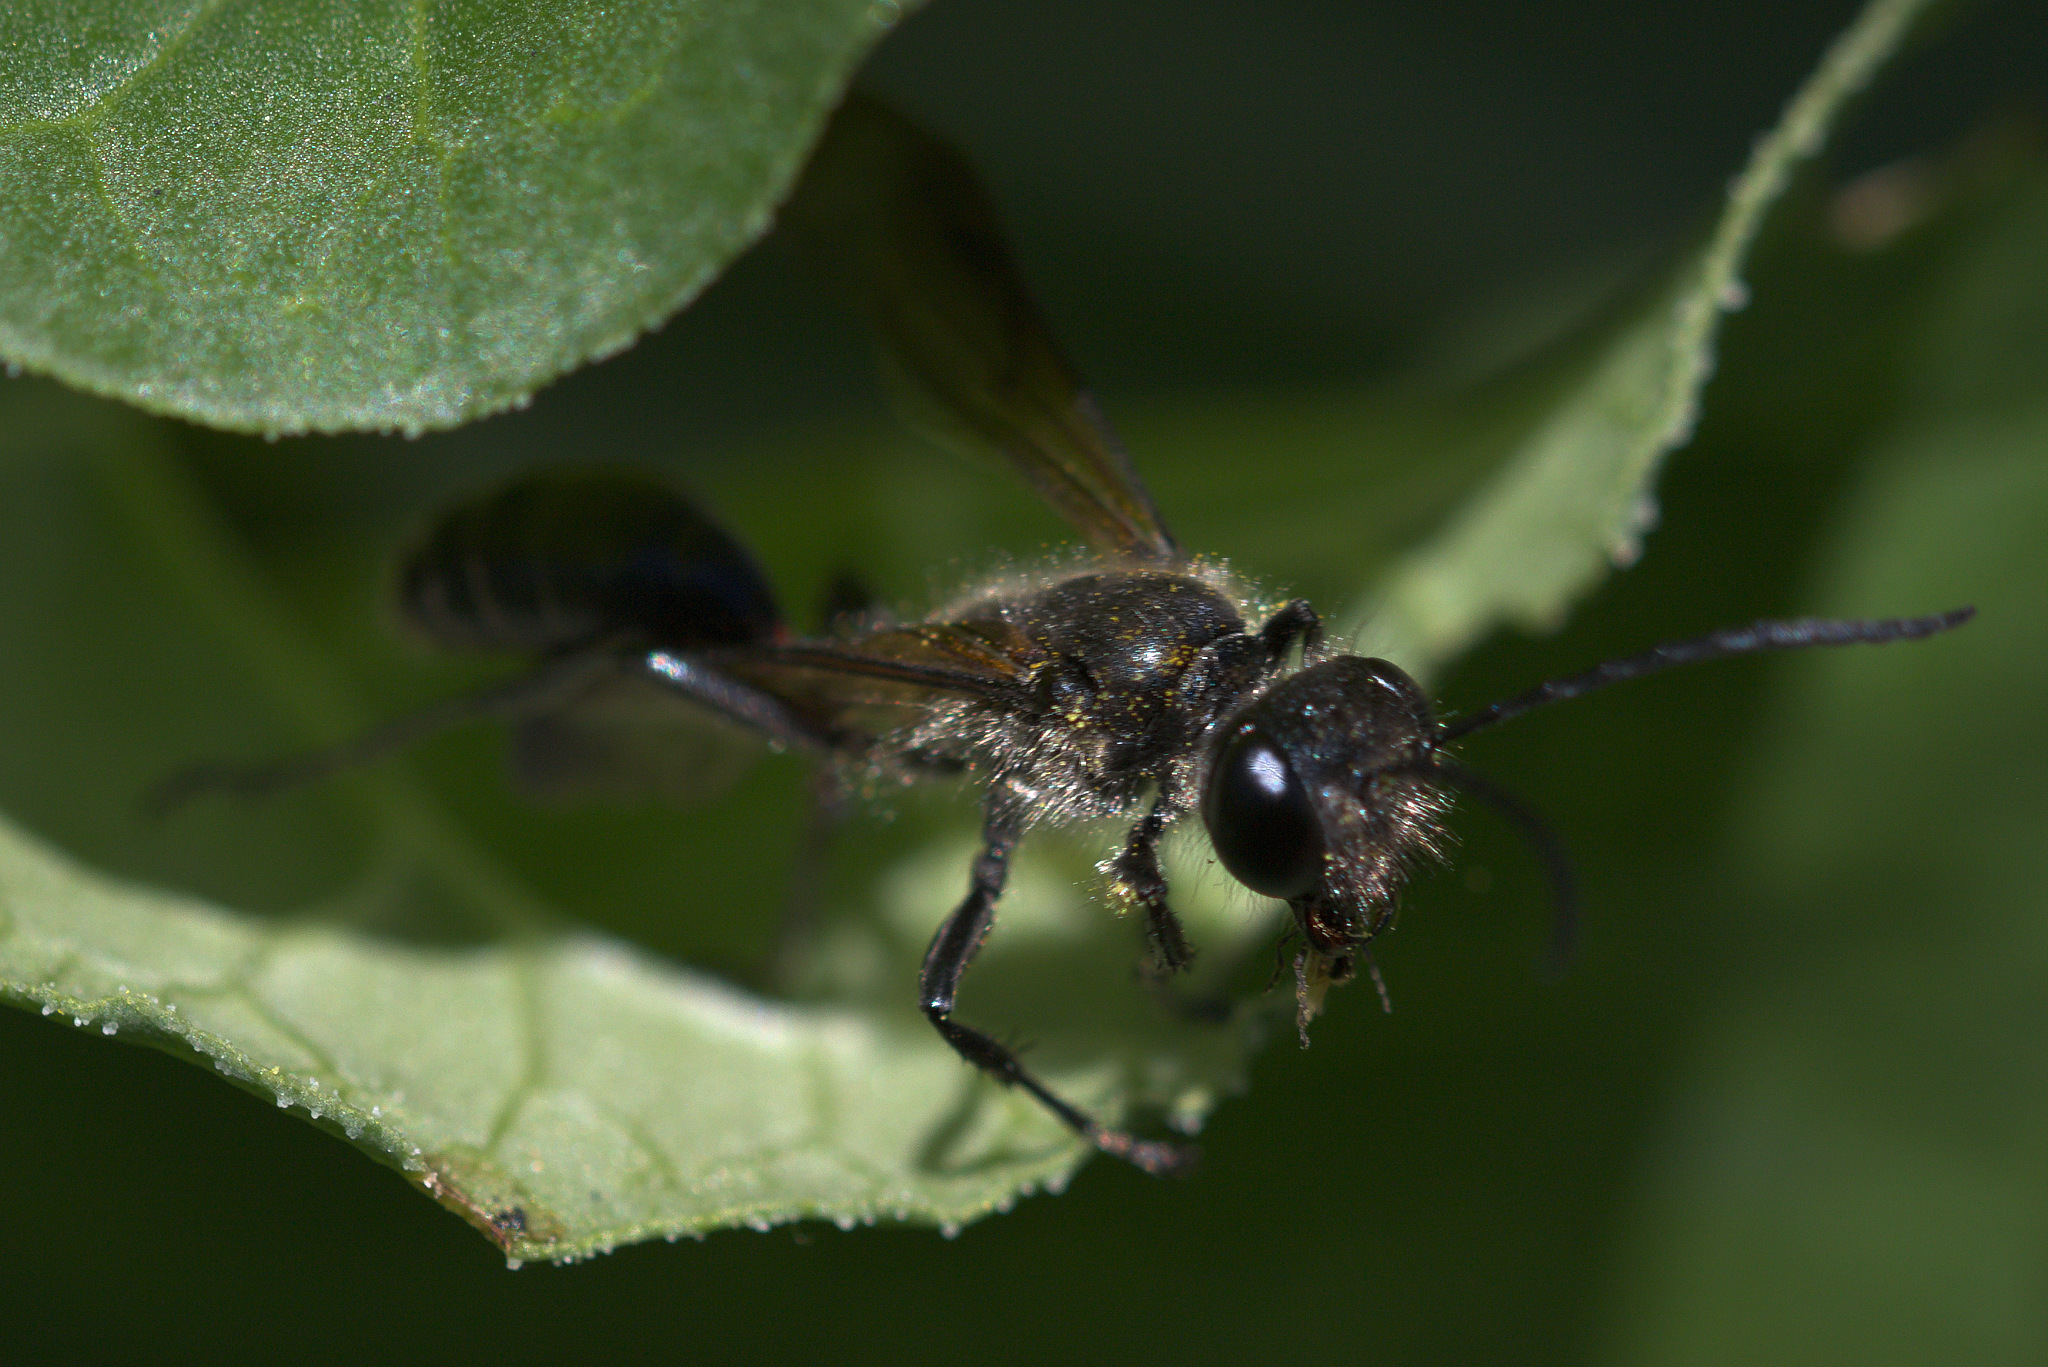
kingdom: Animalia
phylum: Arthropoda
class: Insecta
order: Hymenoptera
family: Sphecidae
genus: Isodontia
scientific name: Isodontia mexicana
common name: Mud dauber
